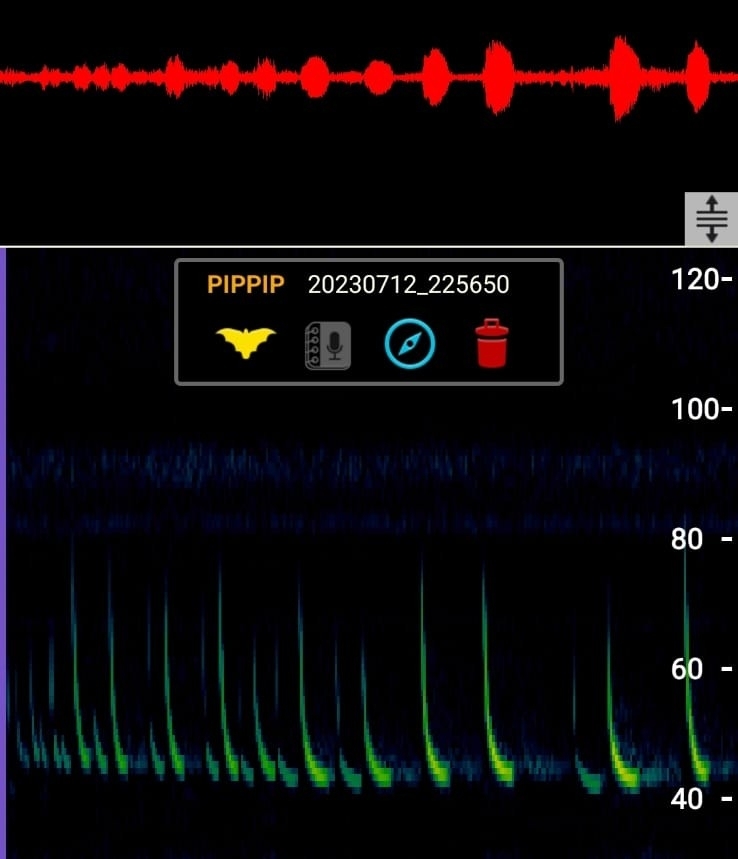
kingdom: Animalia
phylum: Chordata
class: Mammalia
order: Chiroptera
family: Vespertilionidae
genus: Pipistrellus
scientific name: Pipistrellus pipistrellus
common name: Common pipistrelle
